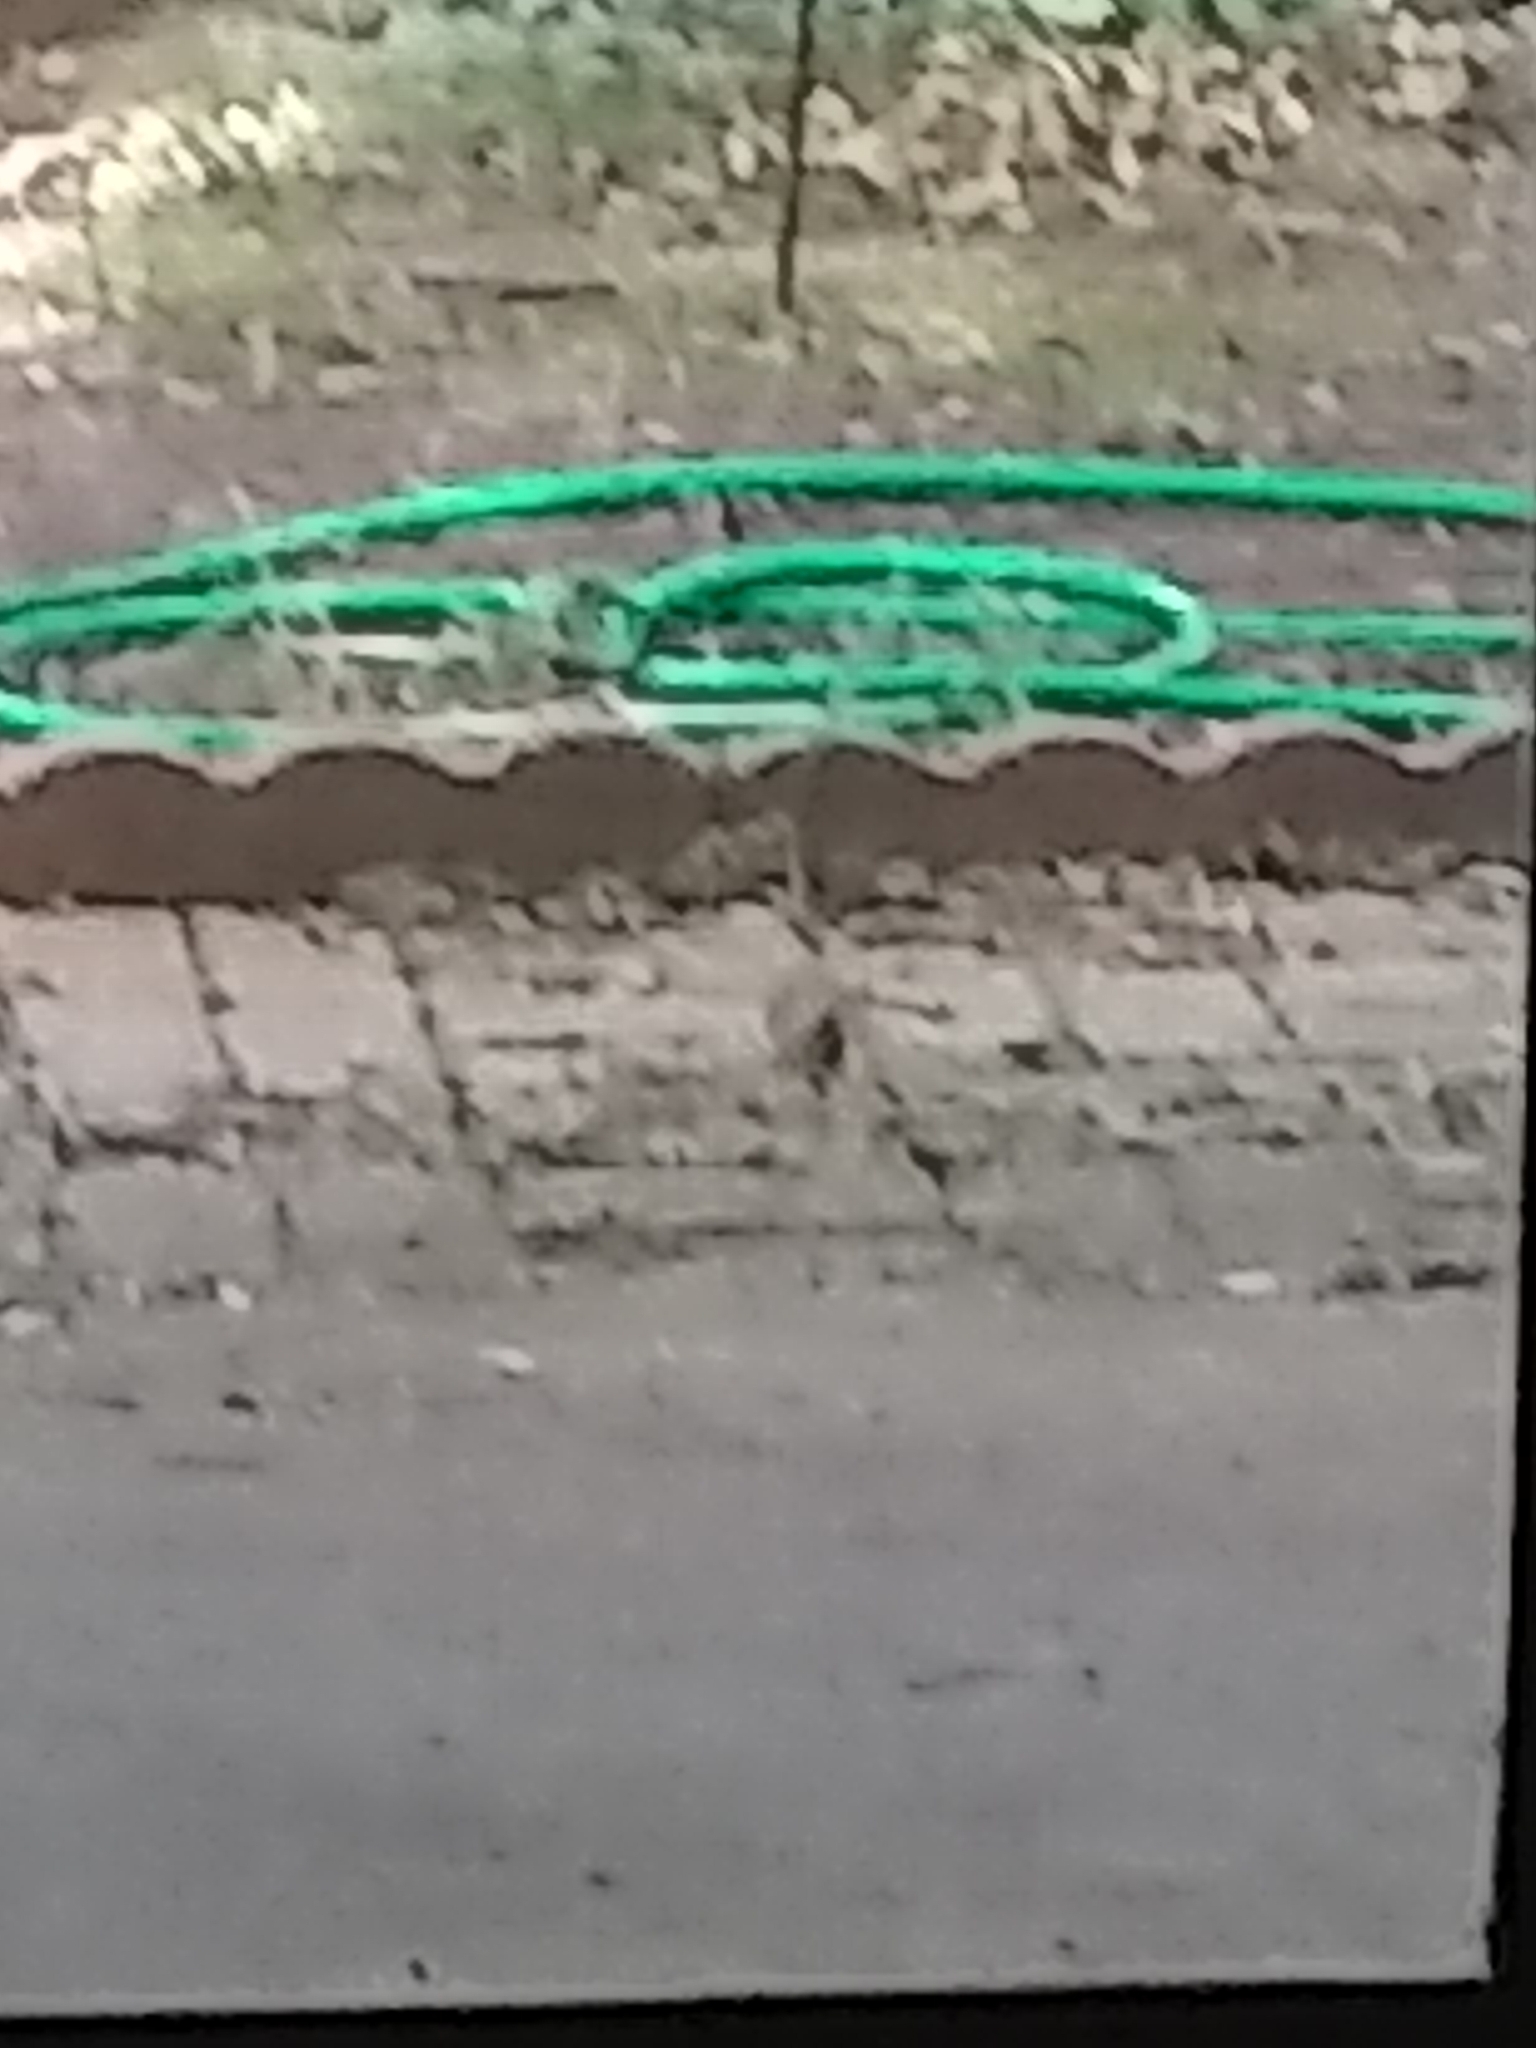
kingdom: Animalia
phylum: Chordata
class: Aves
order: Passeriformes
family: Cardinalidae
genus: Cardinalis
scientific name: Cardinalis cardinalis
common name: Northern cardinal
